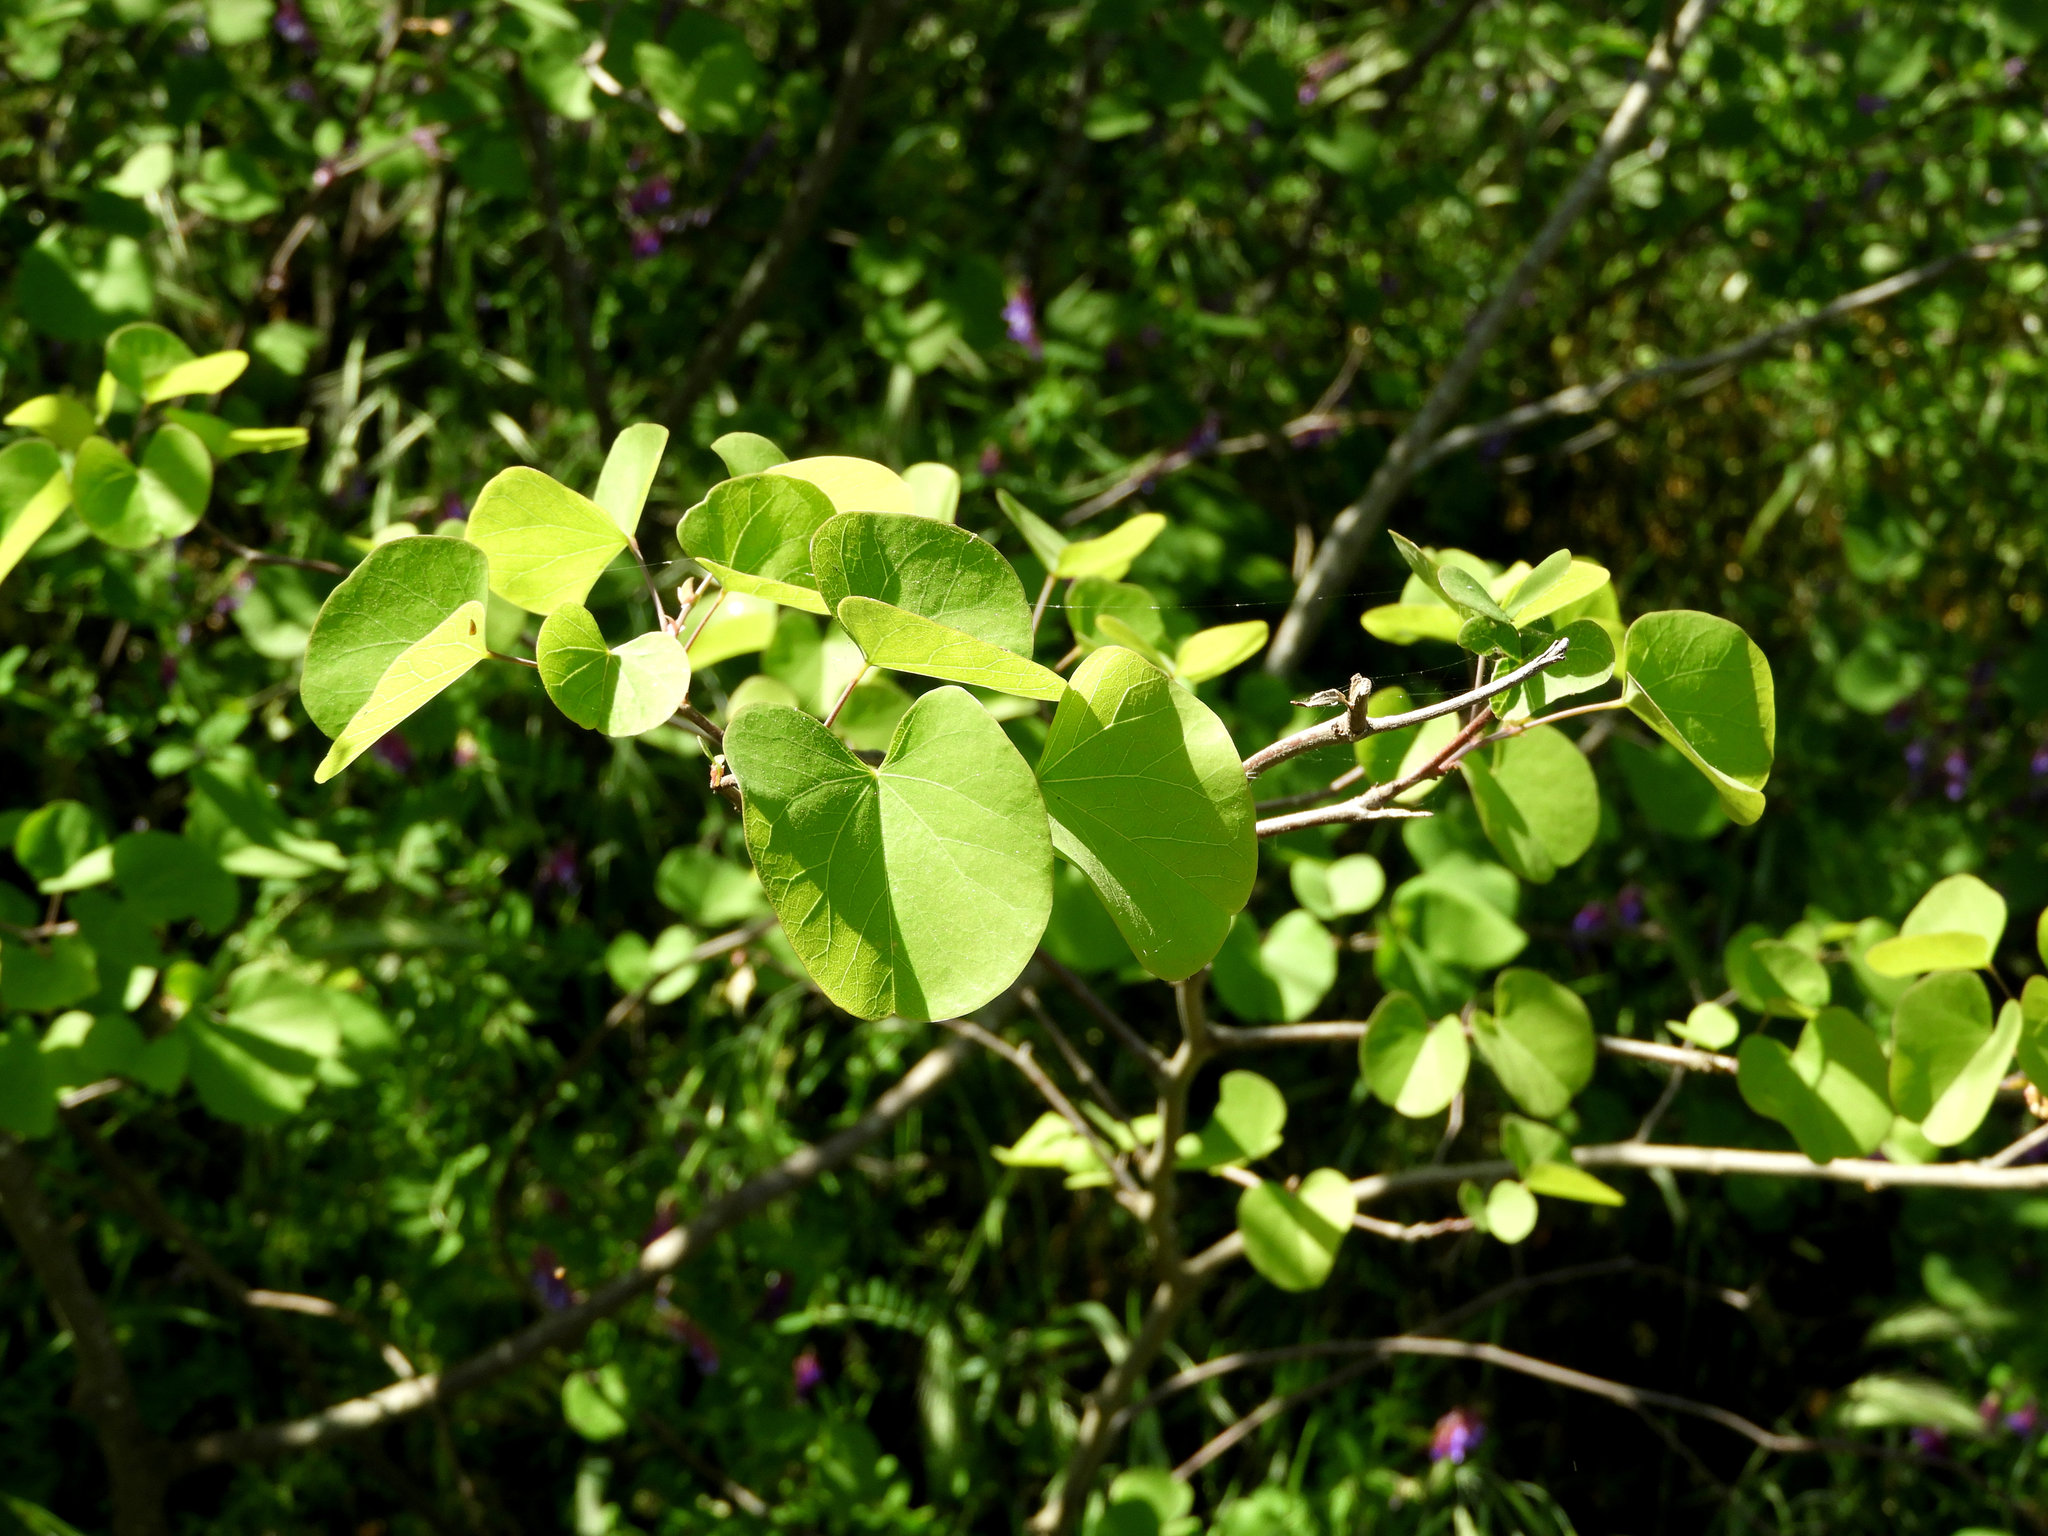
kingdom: Plantae
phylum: Tracheophyta
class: Magnoliopsida
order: Fabales
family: Fabaceae
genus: Cercis
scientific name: Cercis occidentalis
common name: California redbud
